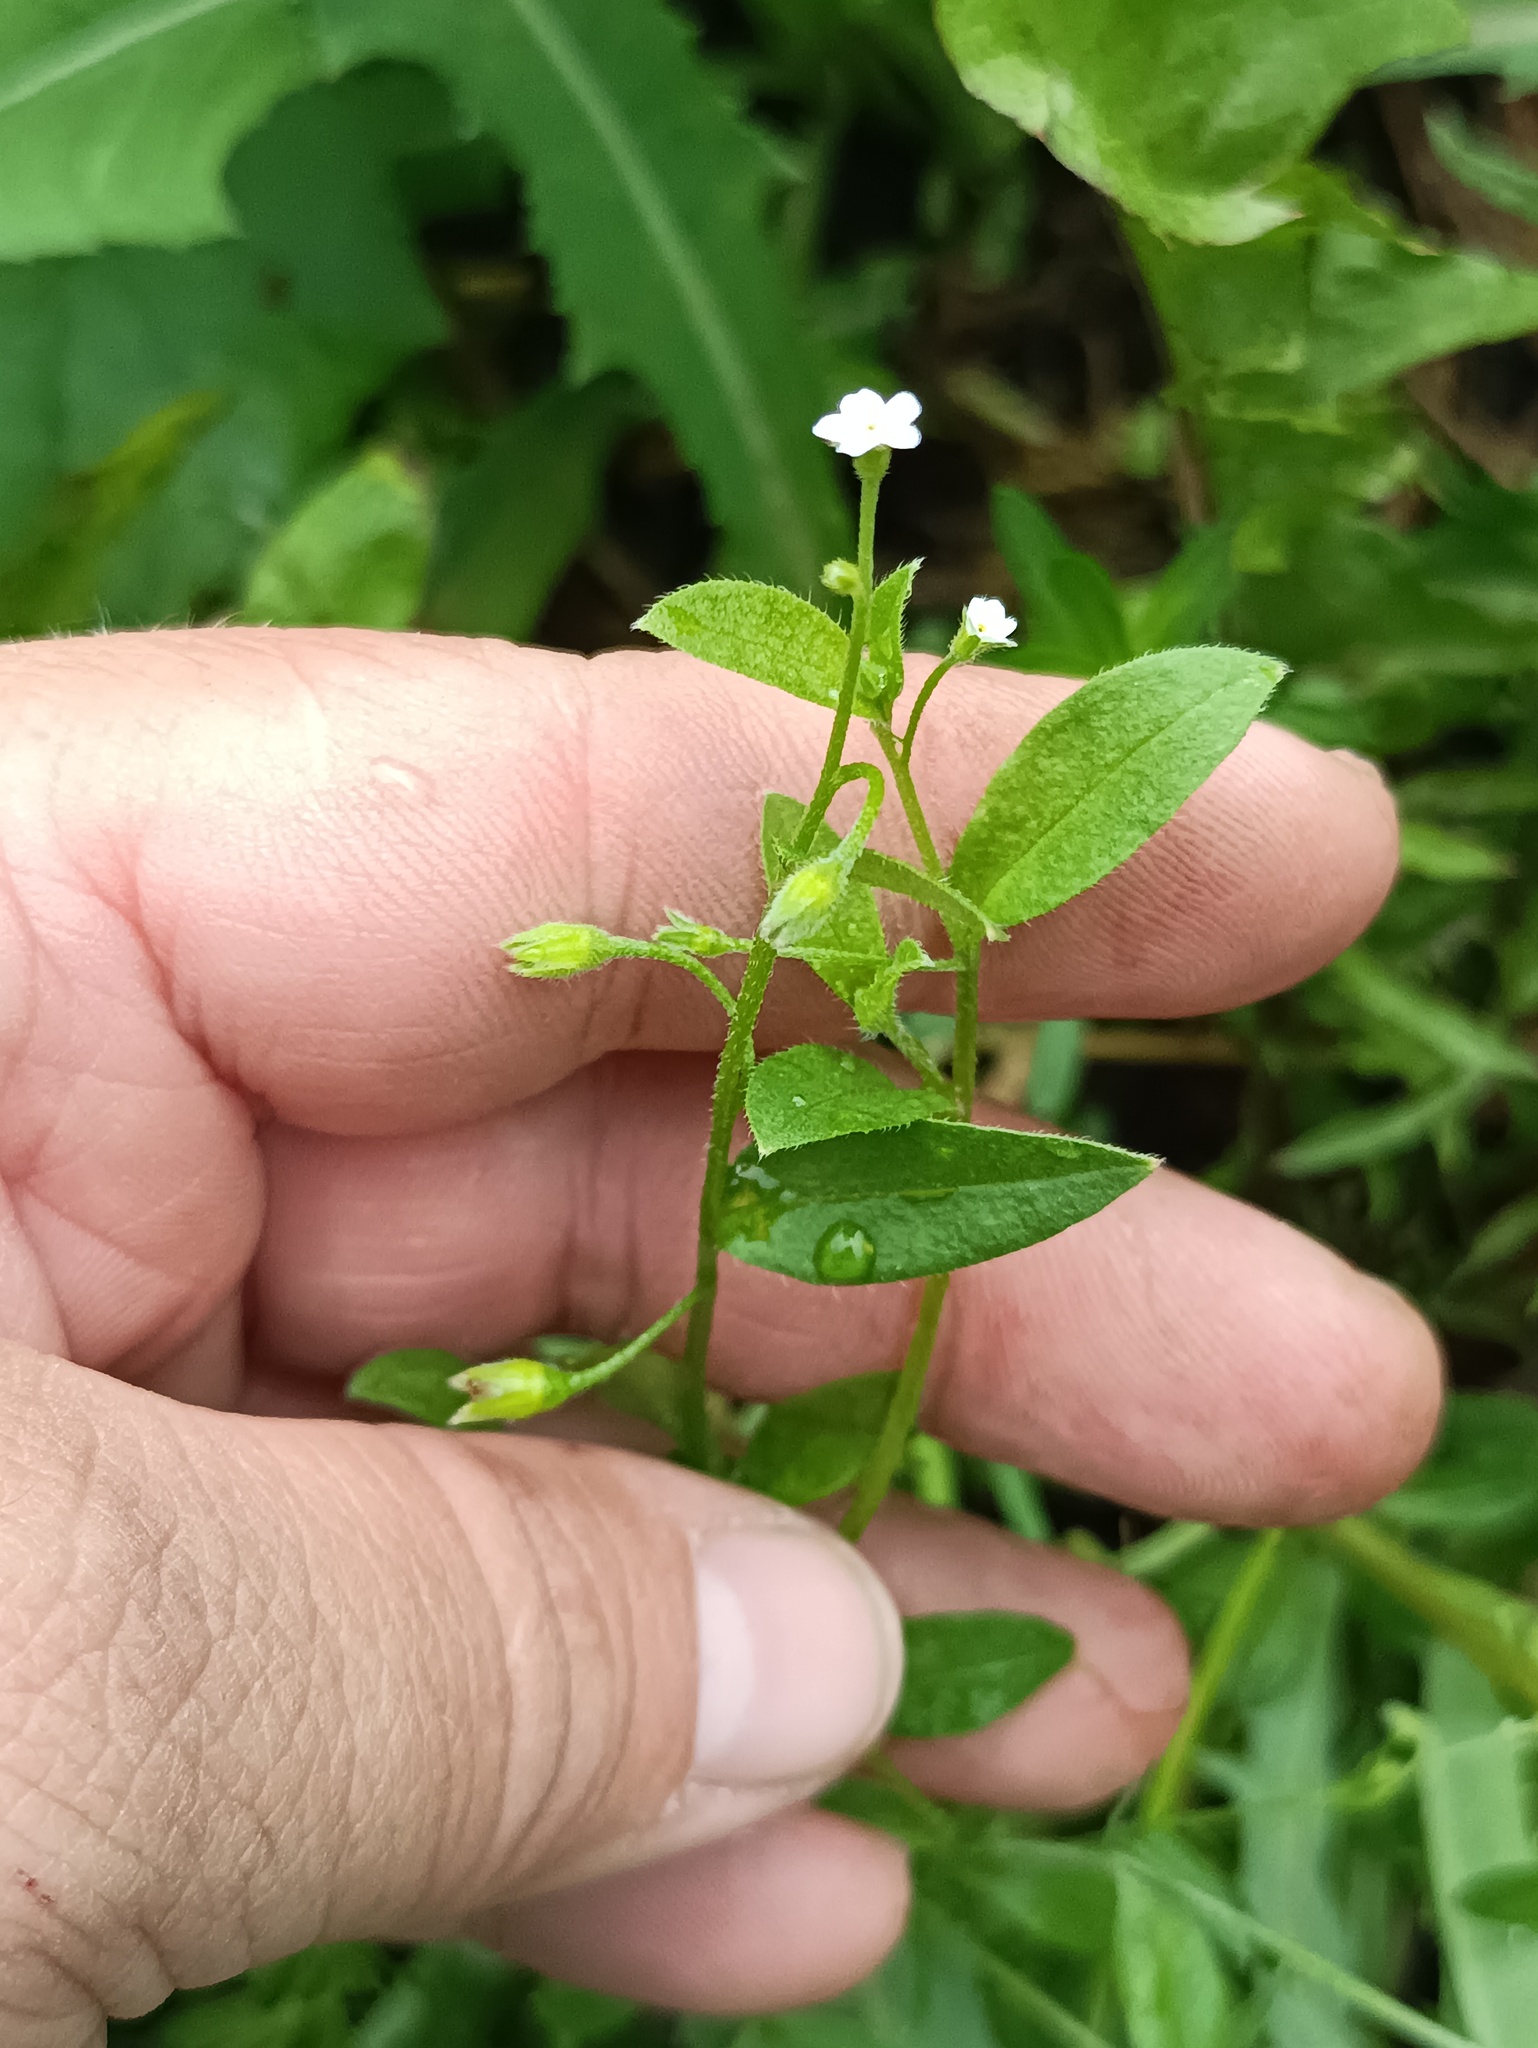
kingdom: Plantae
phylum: Tracheophyta
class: Magnoliopsida
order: Boraginales
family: Boraginaceae
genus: Myosotis
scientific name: Myosotis sparsiflora
